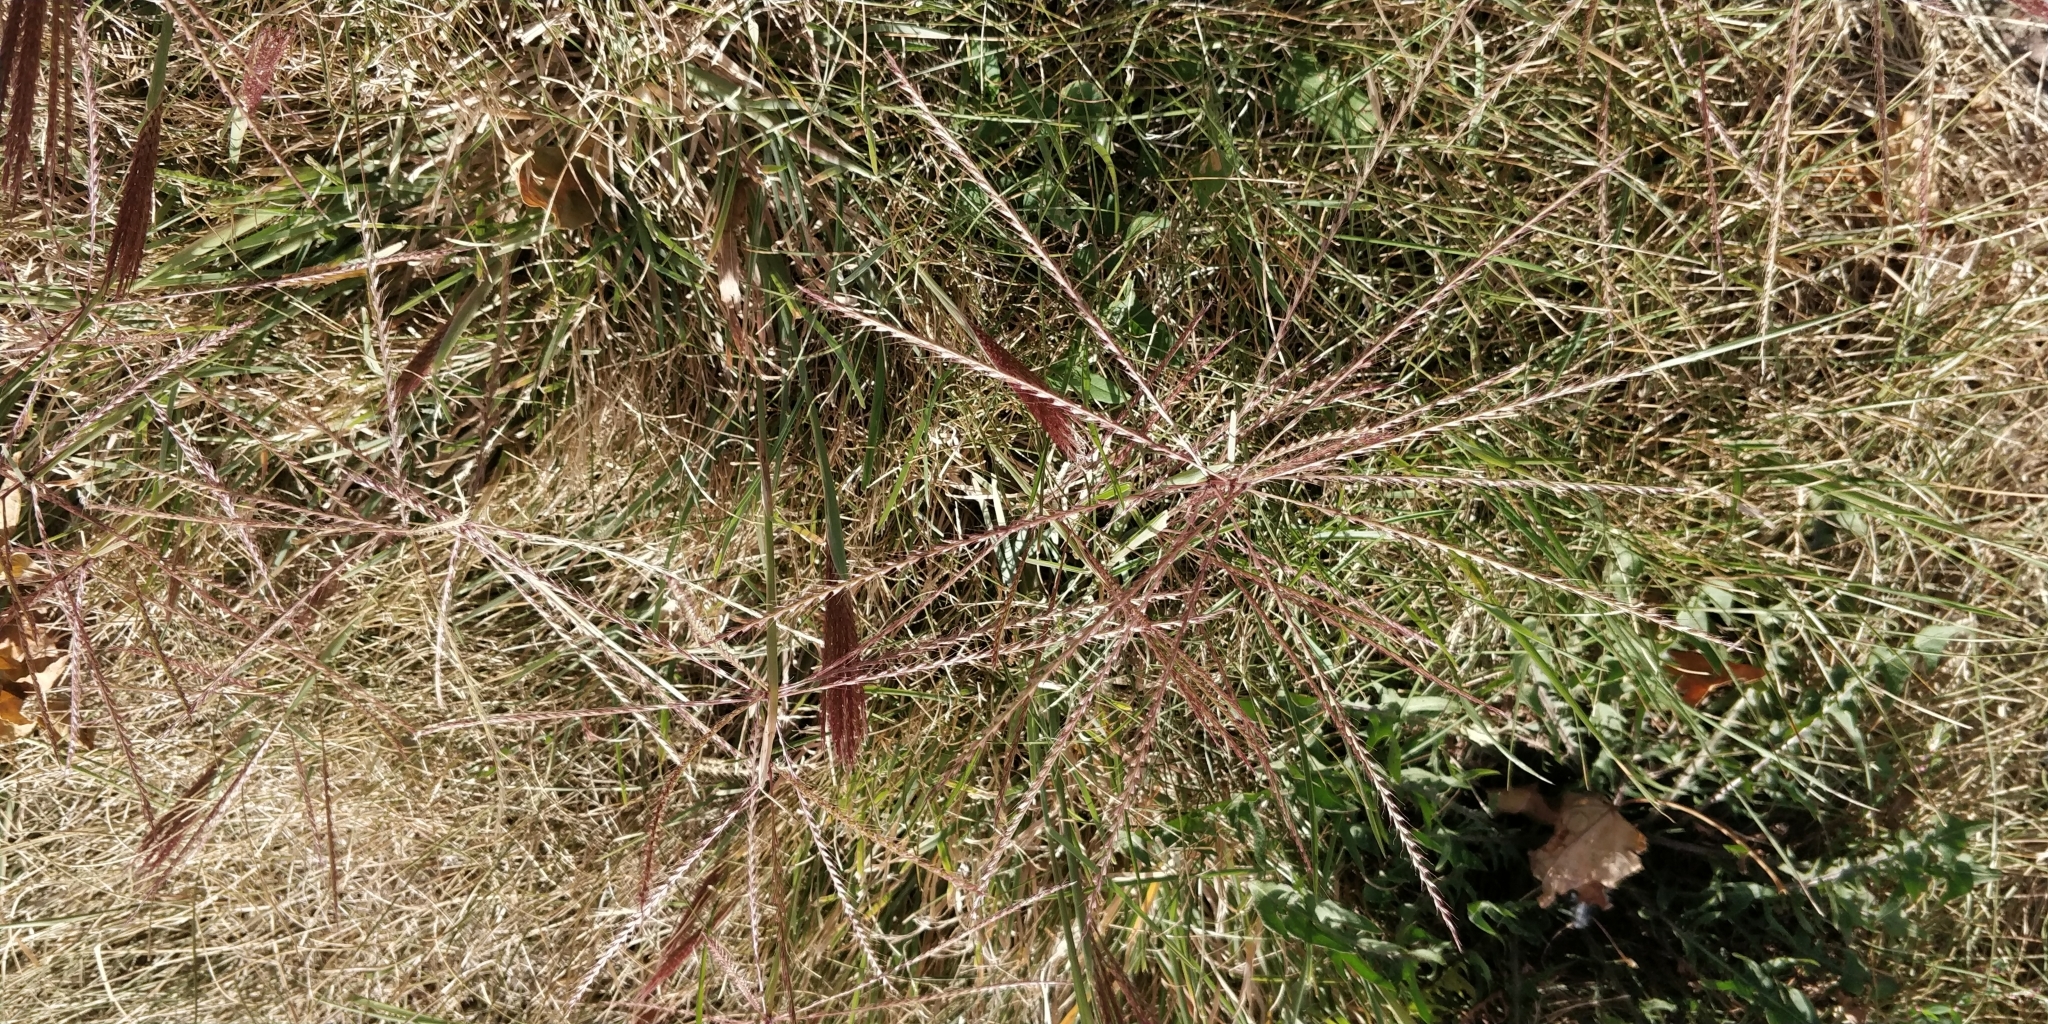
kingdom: Plantae
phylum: Tracheophyta
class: Liliopsida
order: Poales
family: Poaceae
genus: Chloris
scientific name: Chloris verticillata
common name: Tumble windmill grass
